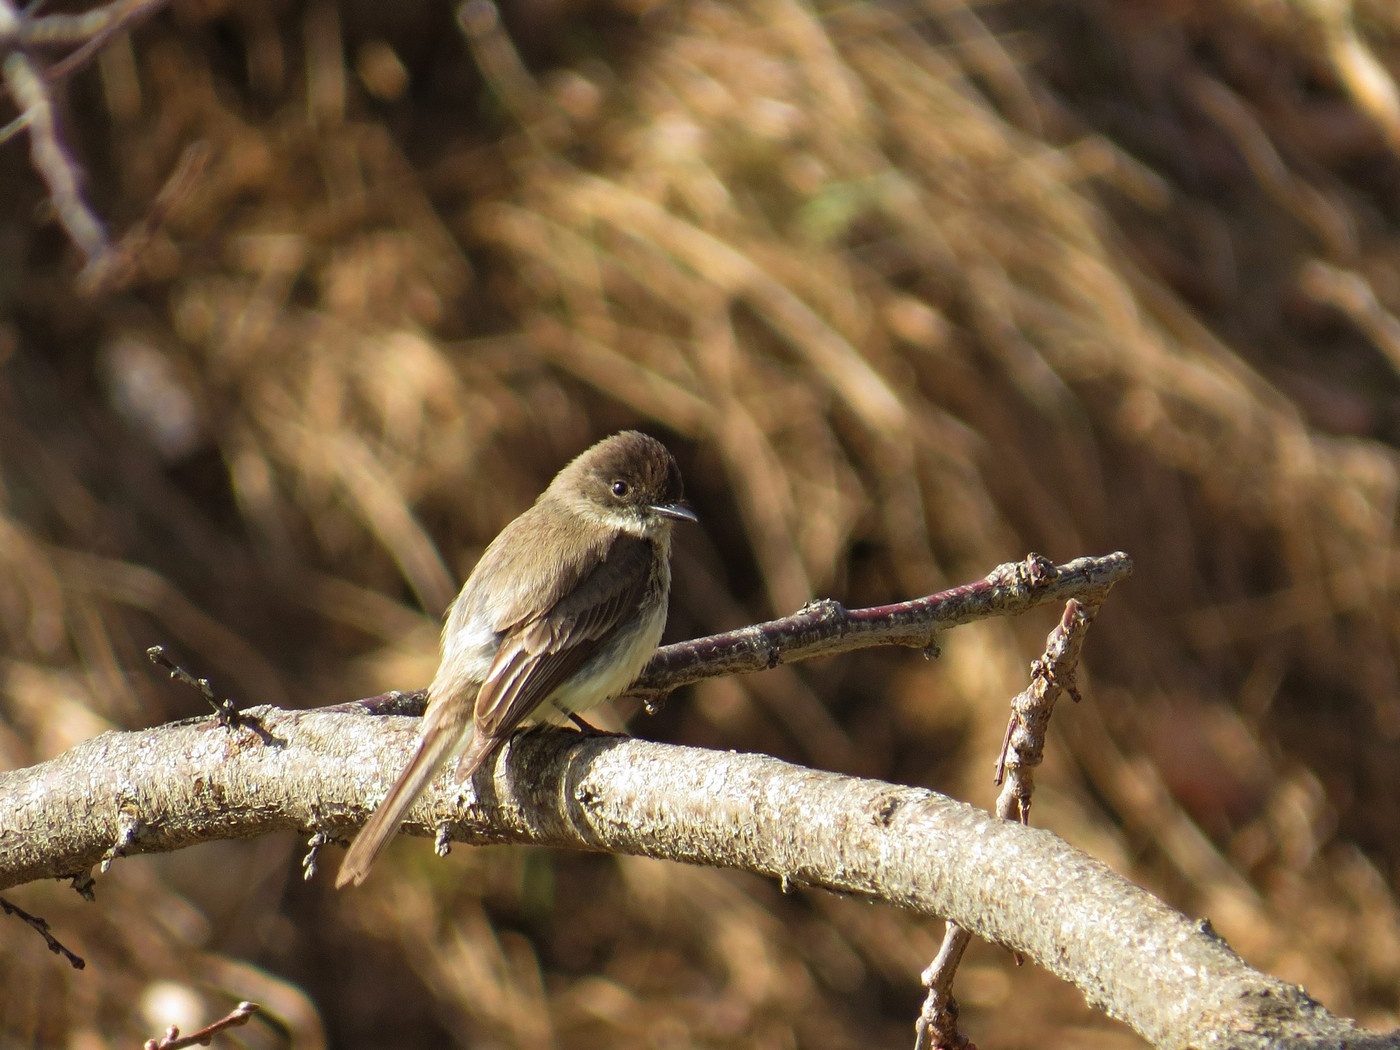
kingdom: Animalia
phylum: Chordata
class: Aves
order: Passeriformes
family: Tyrannidae
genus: Sayornis
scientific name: Sayornis phoebe
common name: Eastern phoebe
